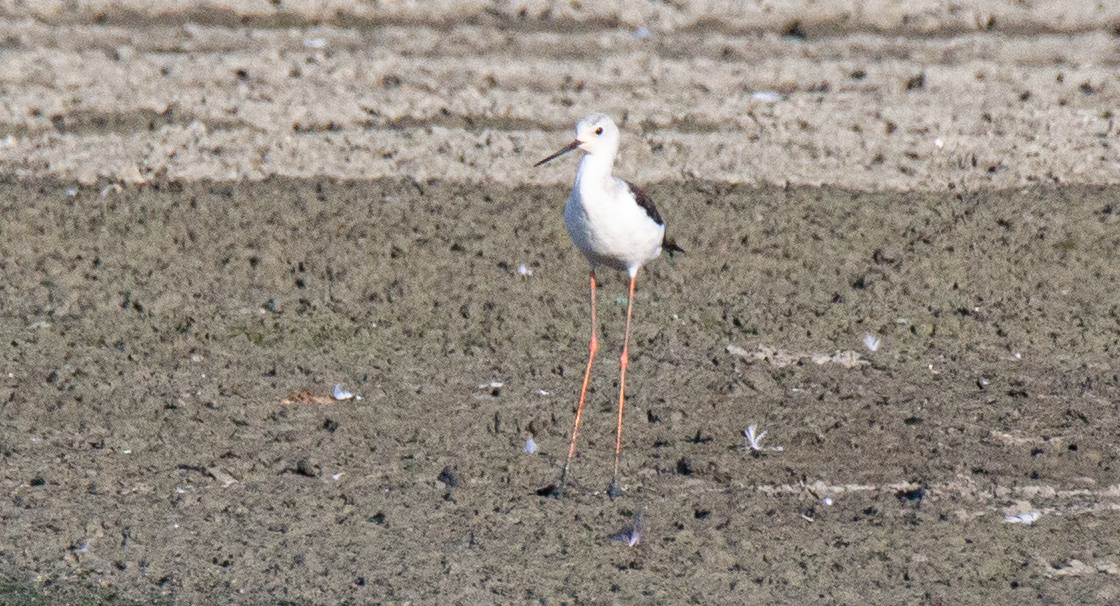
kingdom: Animalia
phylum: Chordata
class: Aves
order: Charadriiformes
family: Recurvirostridae
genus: Himantopus
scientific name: Himantopus himantopus
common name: Black-winged stilt
